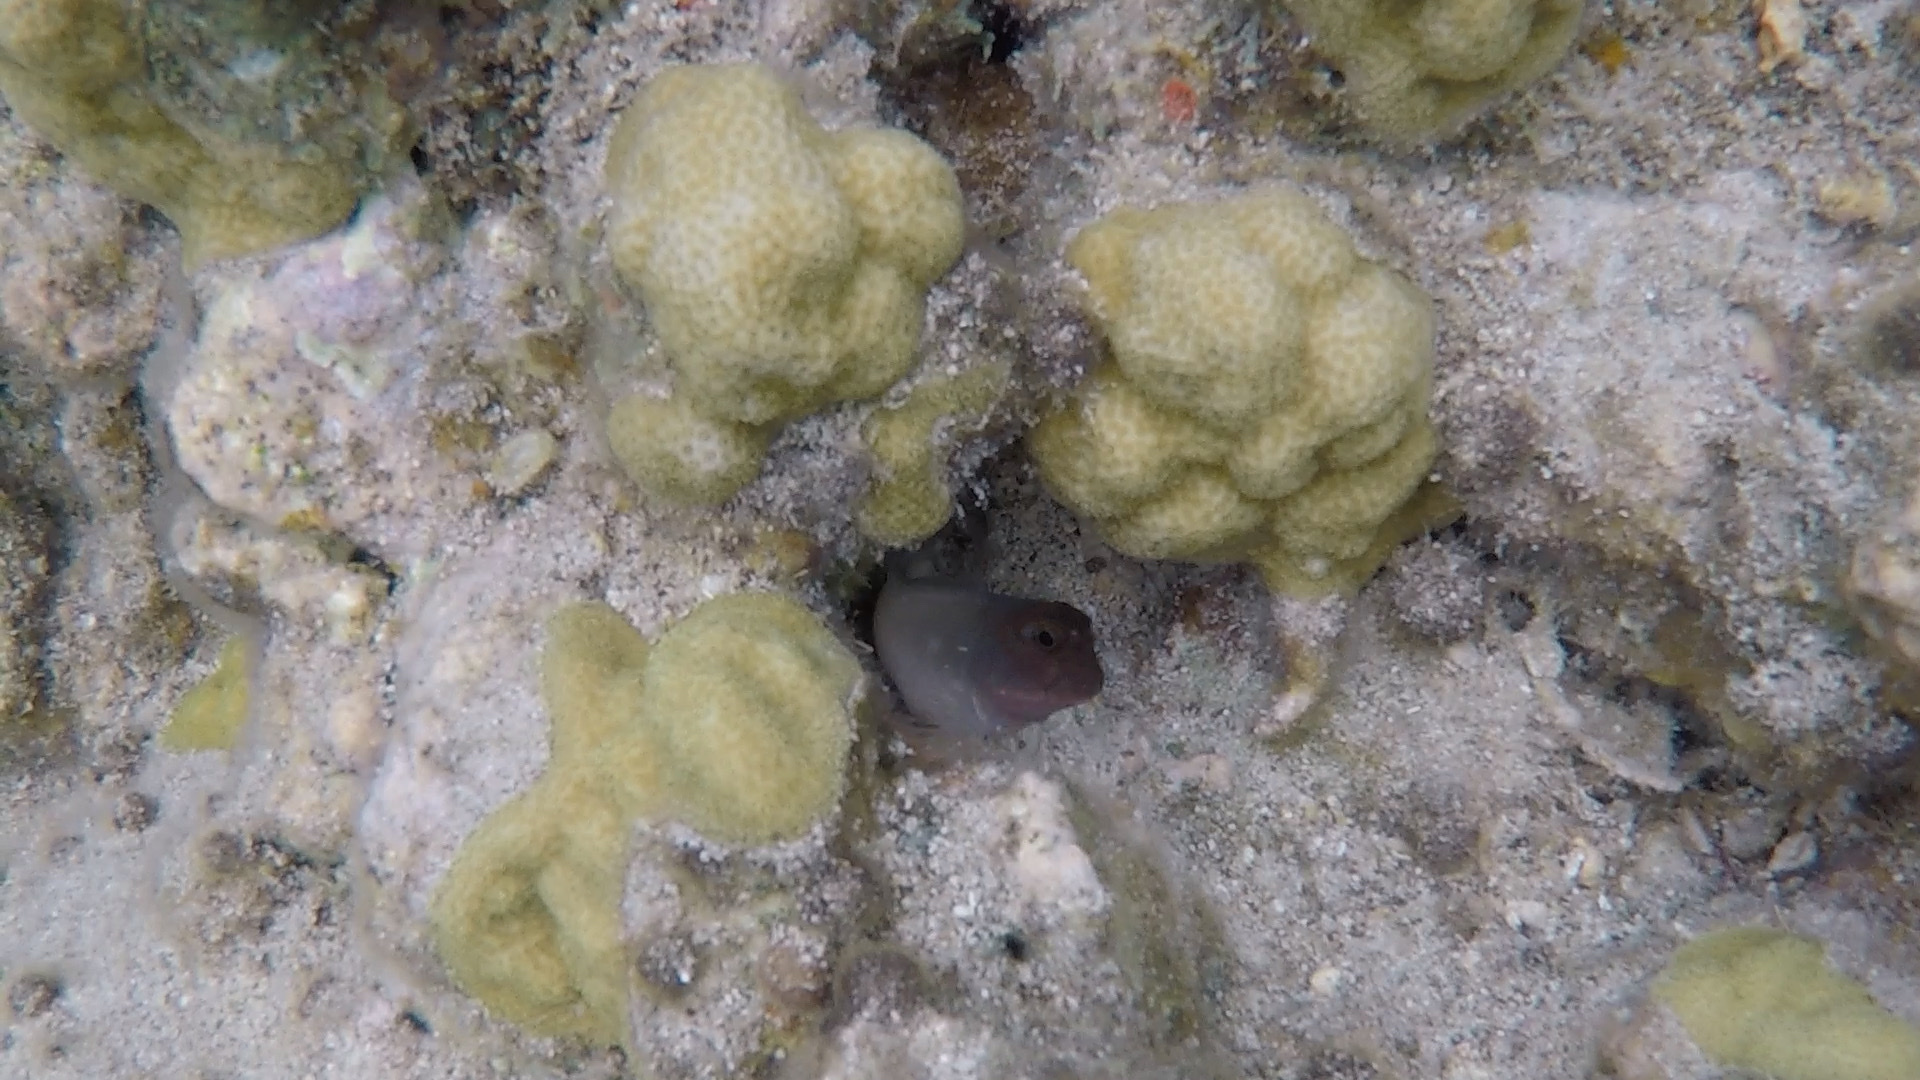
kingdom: Animalia
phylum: Chordata
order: Perciformes
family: Blenniidae
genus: Ophioblennius
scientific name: Ophioblennius macclurei
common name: Redlip blenny
